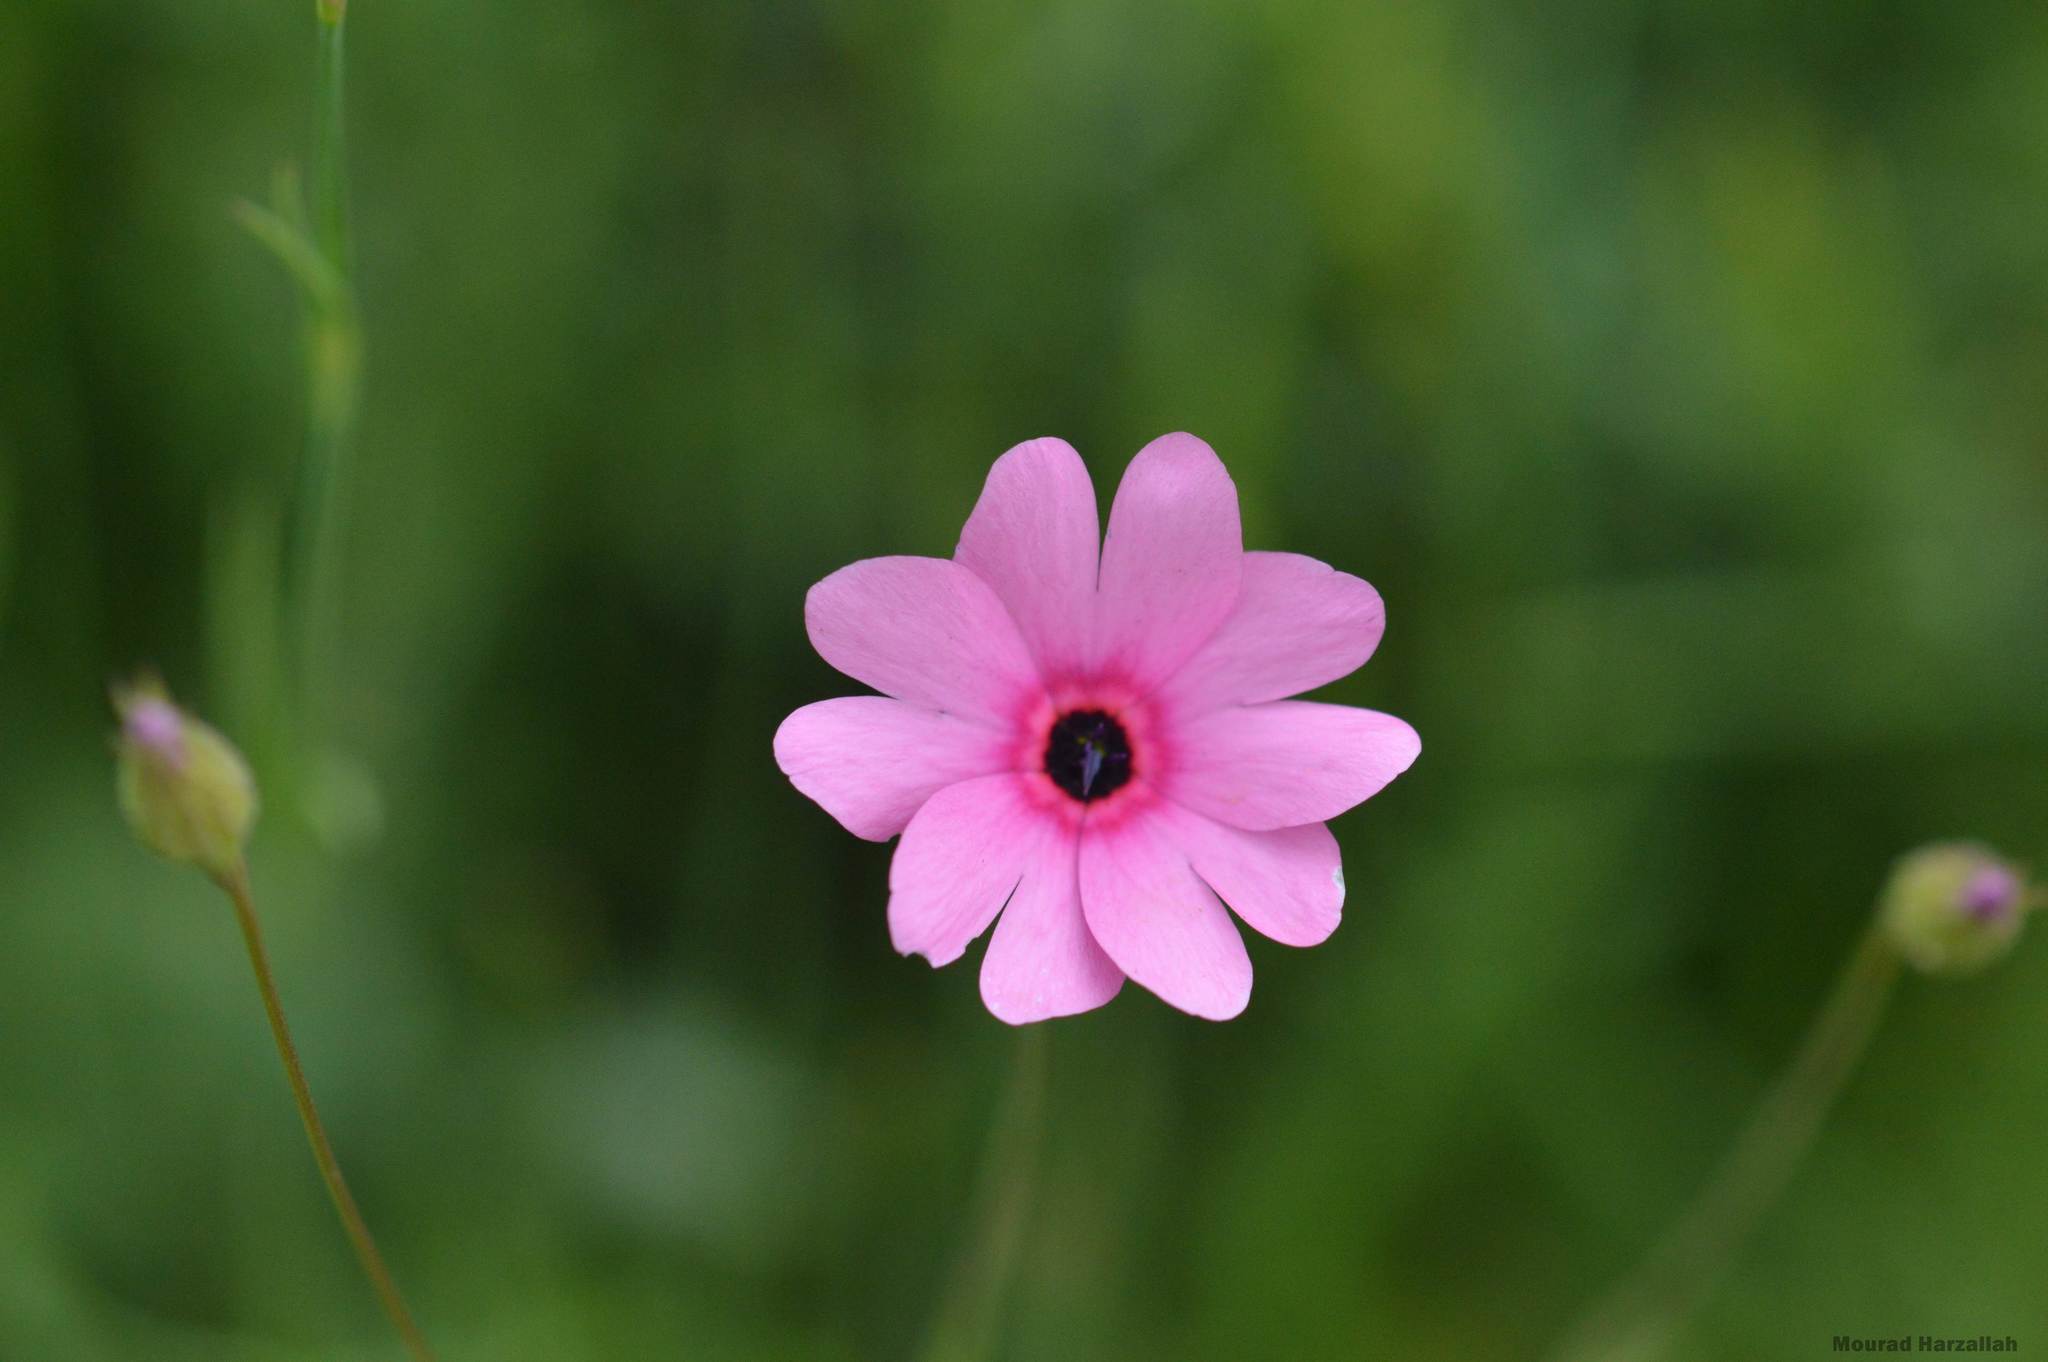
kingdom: Plantae
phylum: Tracheophyta
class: Magnoliopsida
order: Caryophyllales
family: Caryophyllaceae
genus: Eudianthe
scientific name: Eudianthe coeli-rosa
